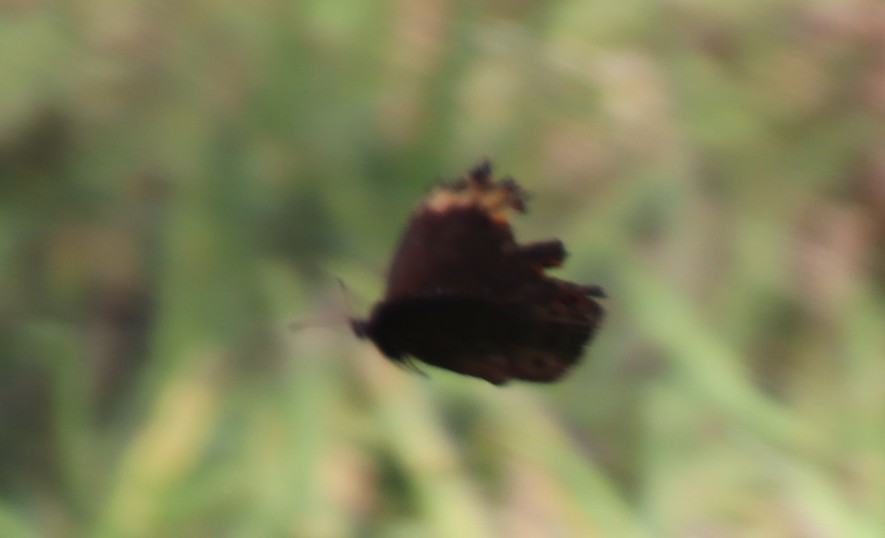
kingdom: Animalia
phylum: Arthropoda
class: Insecta
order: Lepidoptera
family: Nymphalidae
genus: Dira
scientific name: Dira clytus
